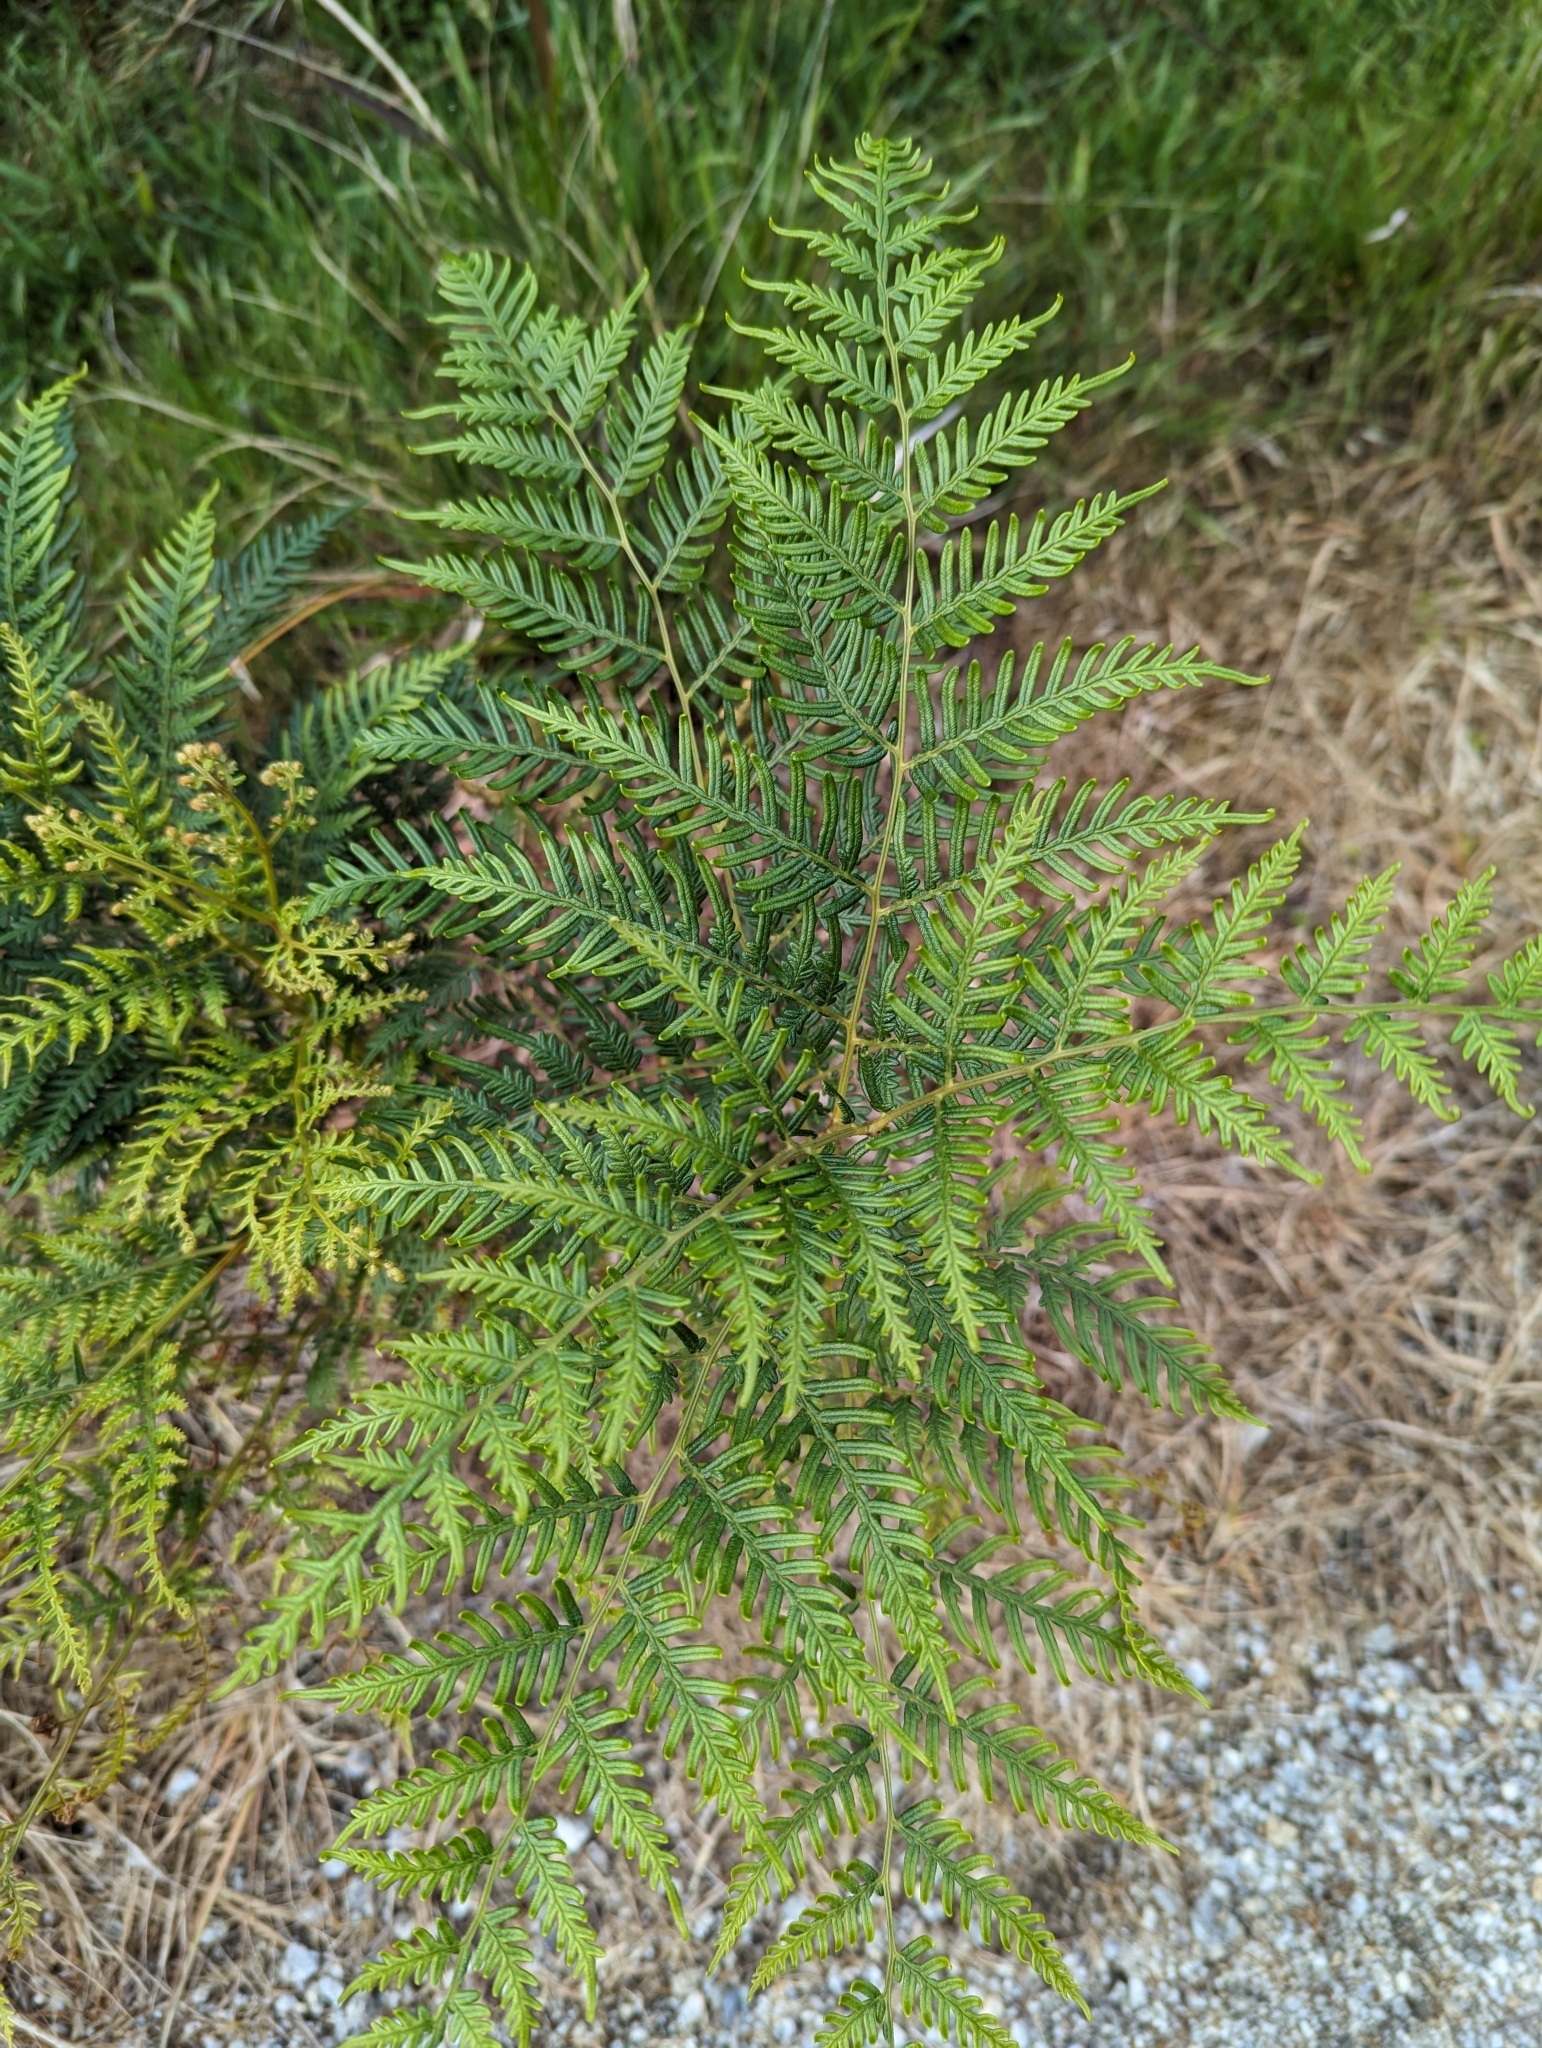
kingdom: Plantae
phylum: Tracheophyta
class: Polypodiopsida
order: Polypodiales
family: Dennstaedtiaceae
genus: Pteridium
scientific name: Pteridium esculentum
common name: Bracken fern
